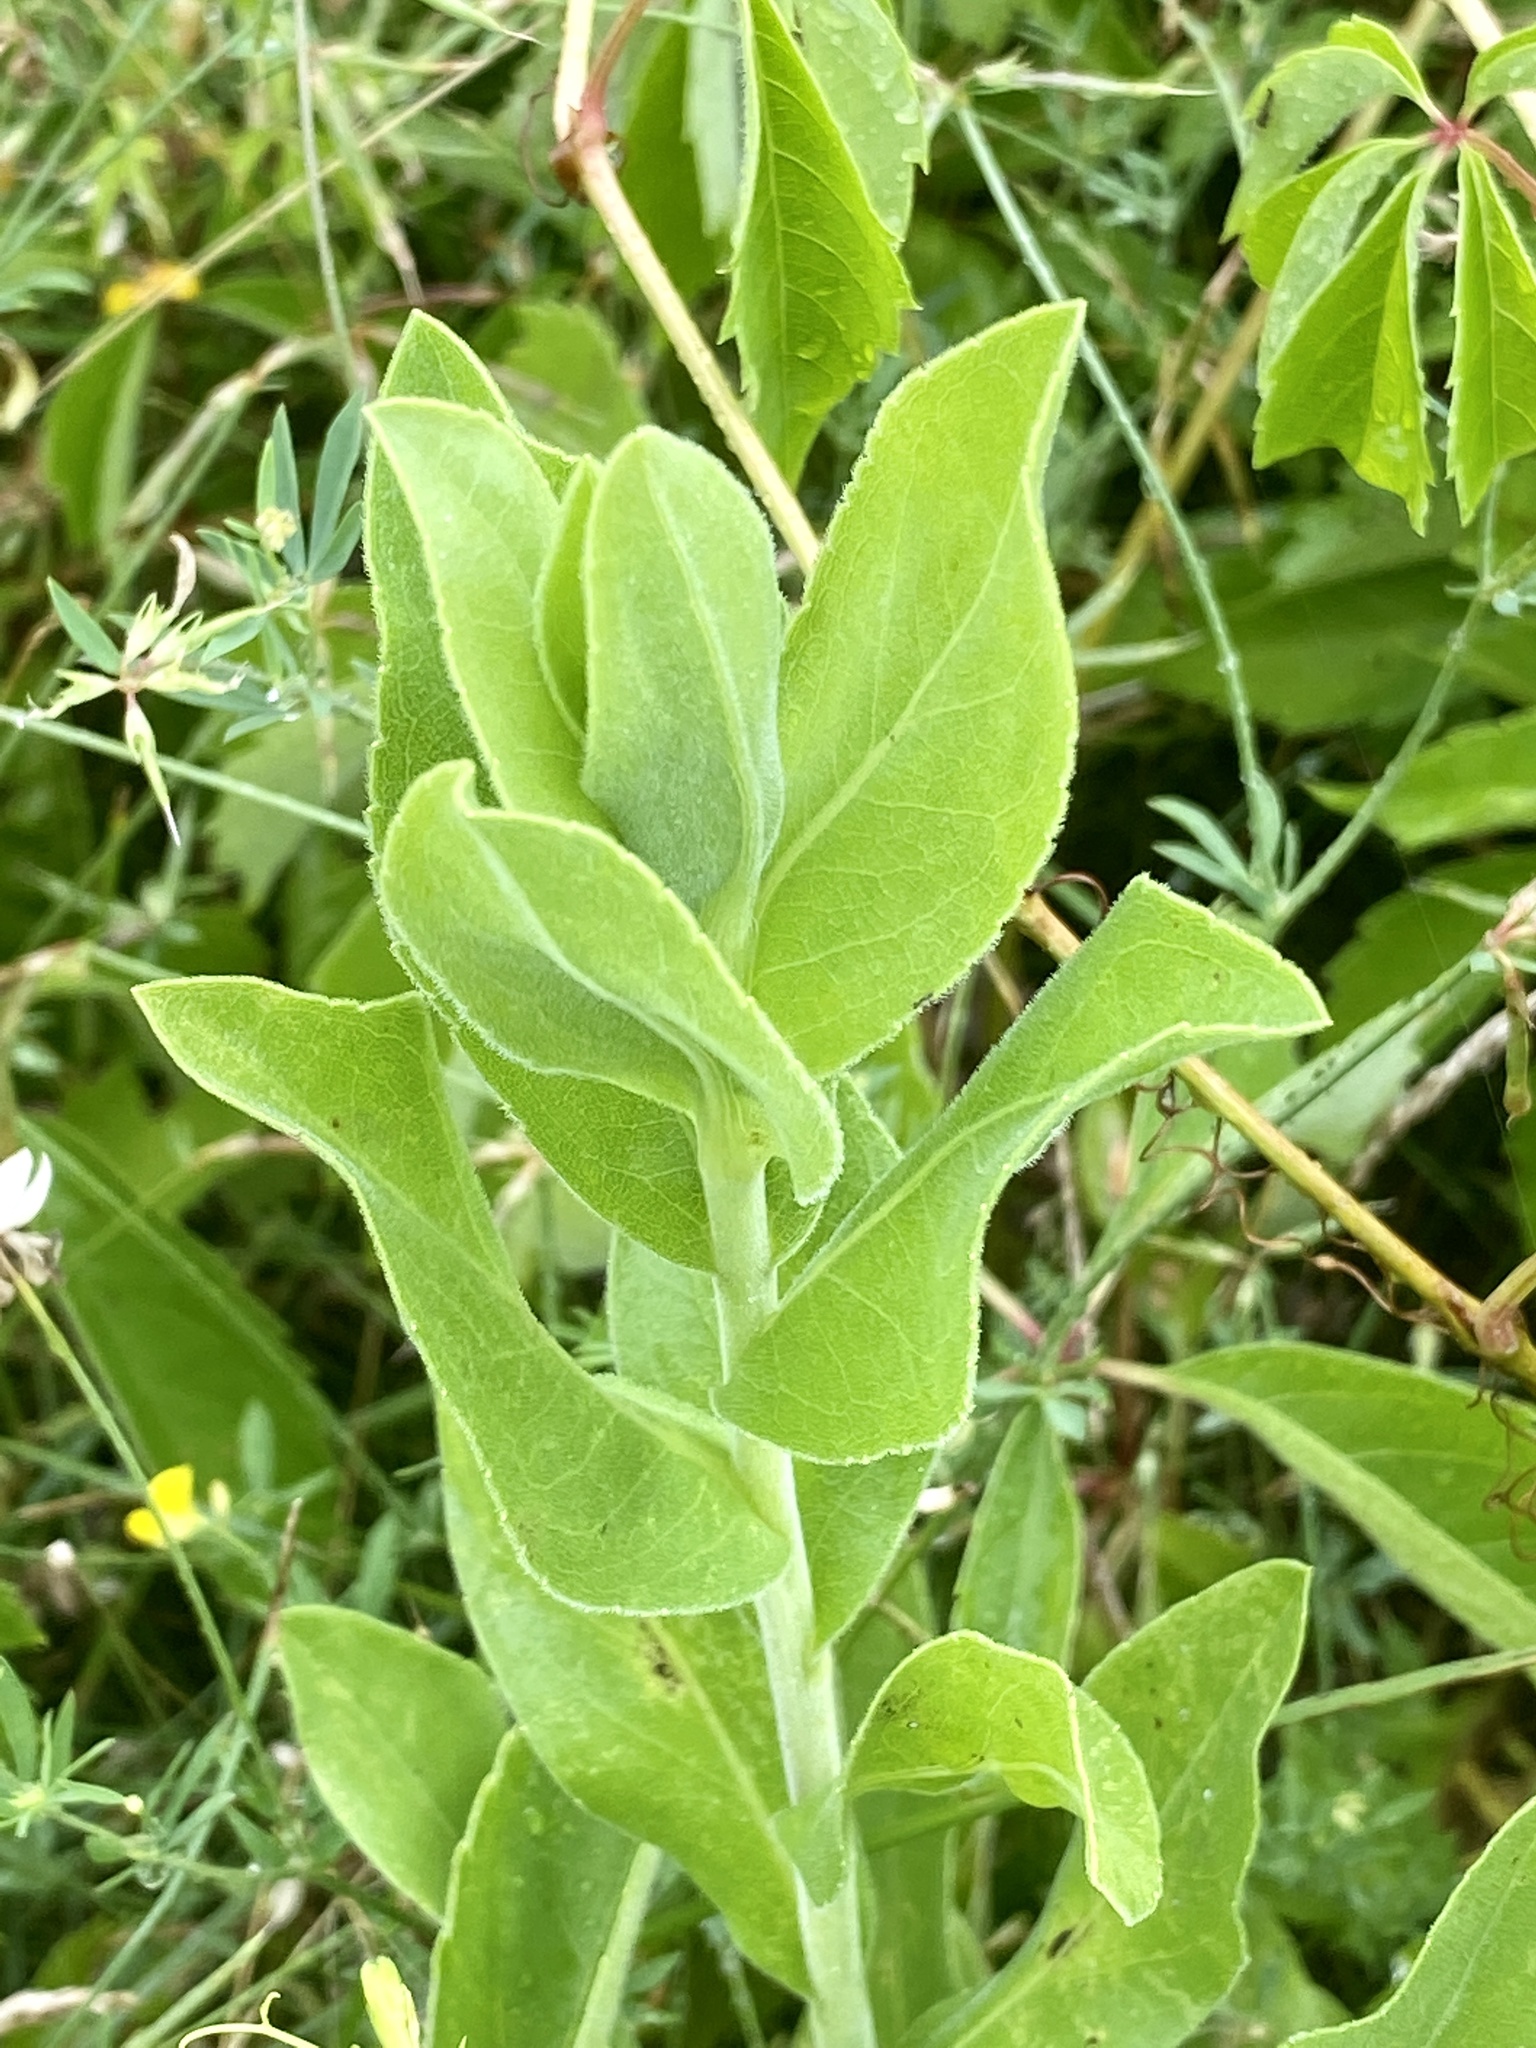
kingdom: Plantae
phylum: Tracheophyta
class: Magnoliopsida
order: Asterales
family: Asteraceae
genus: Solidago
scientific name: Solidago rigida
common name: Rigid goldenrod
